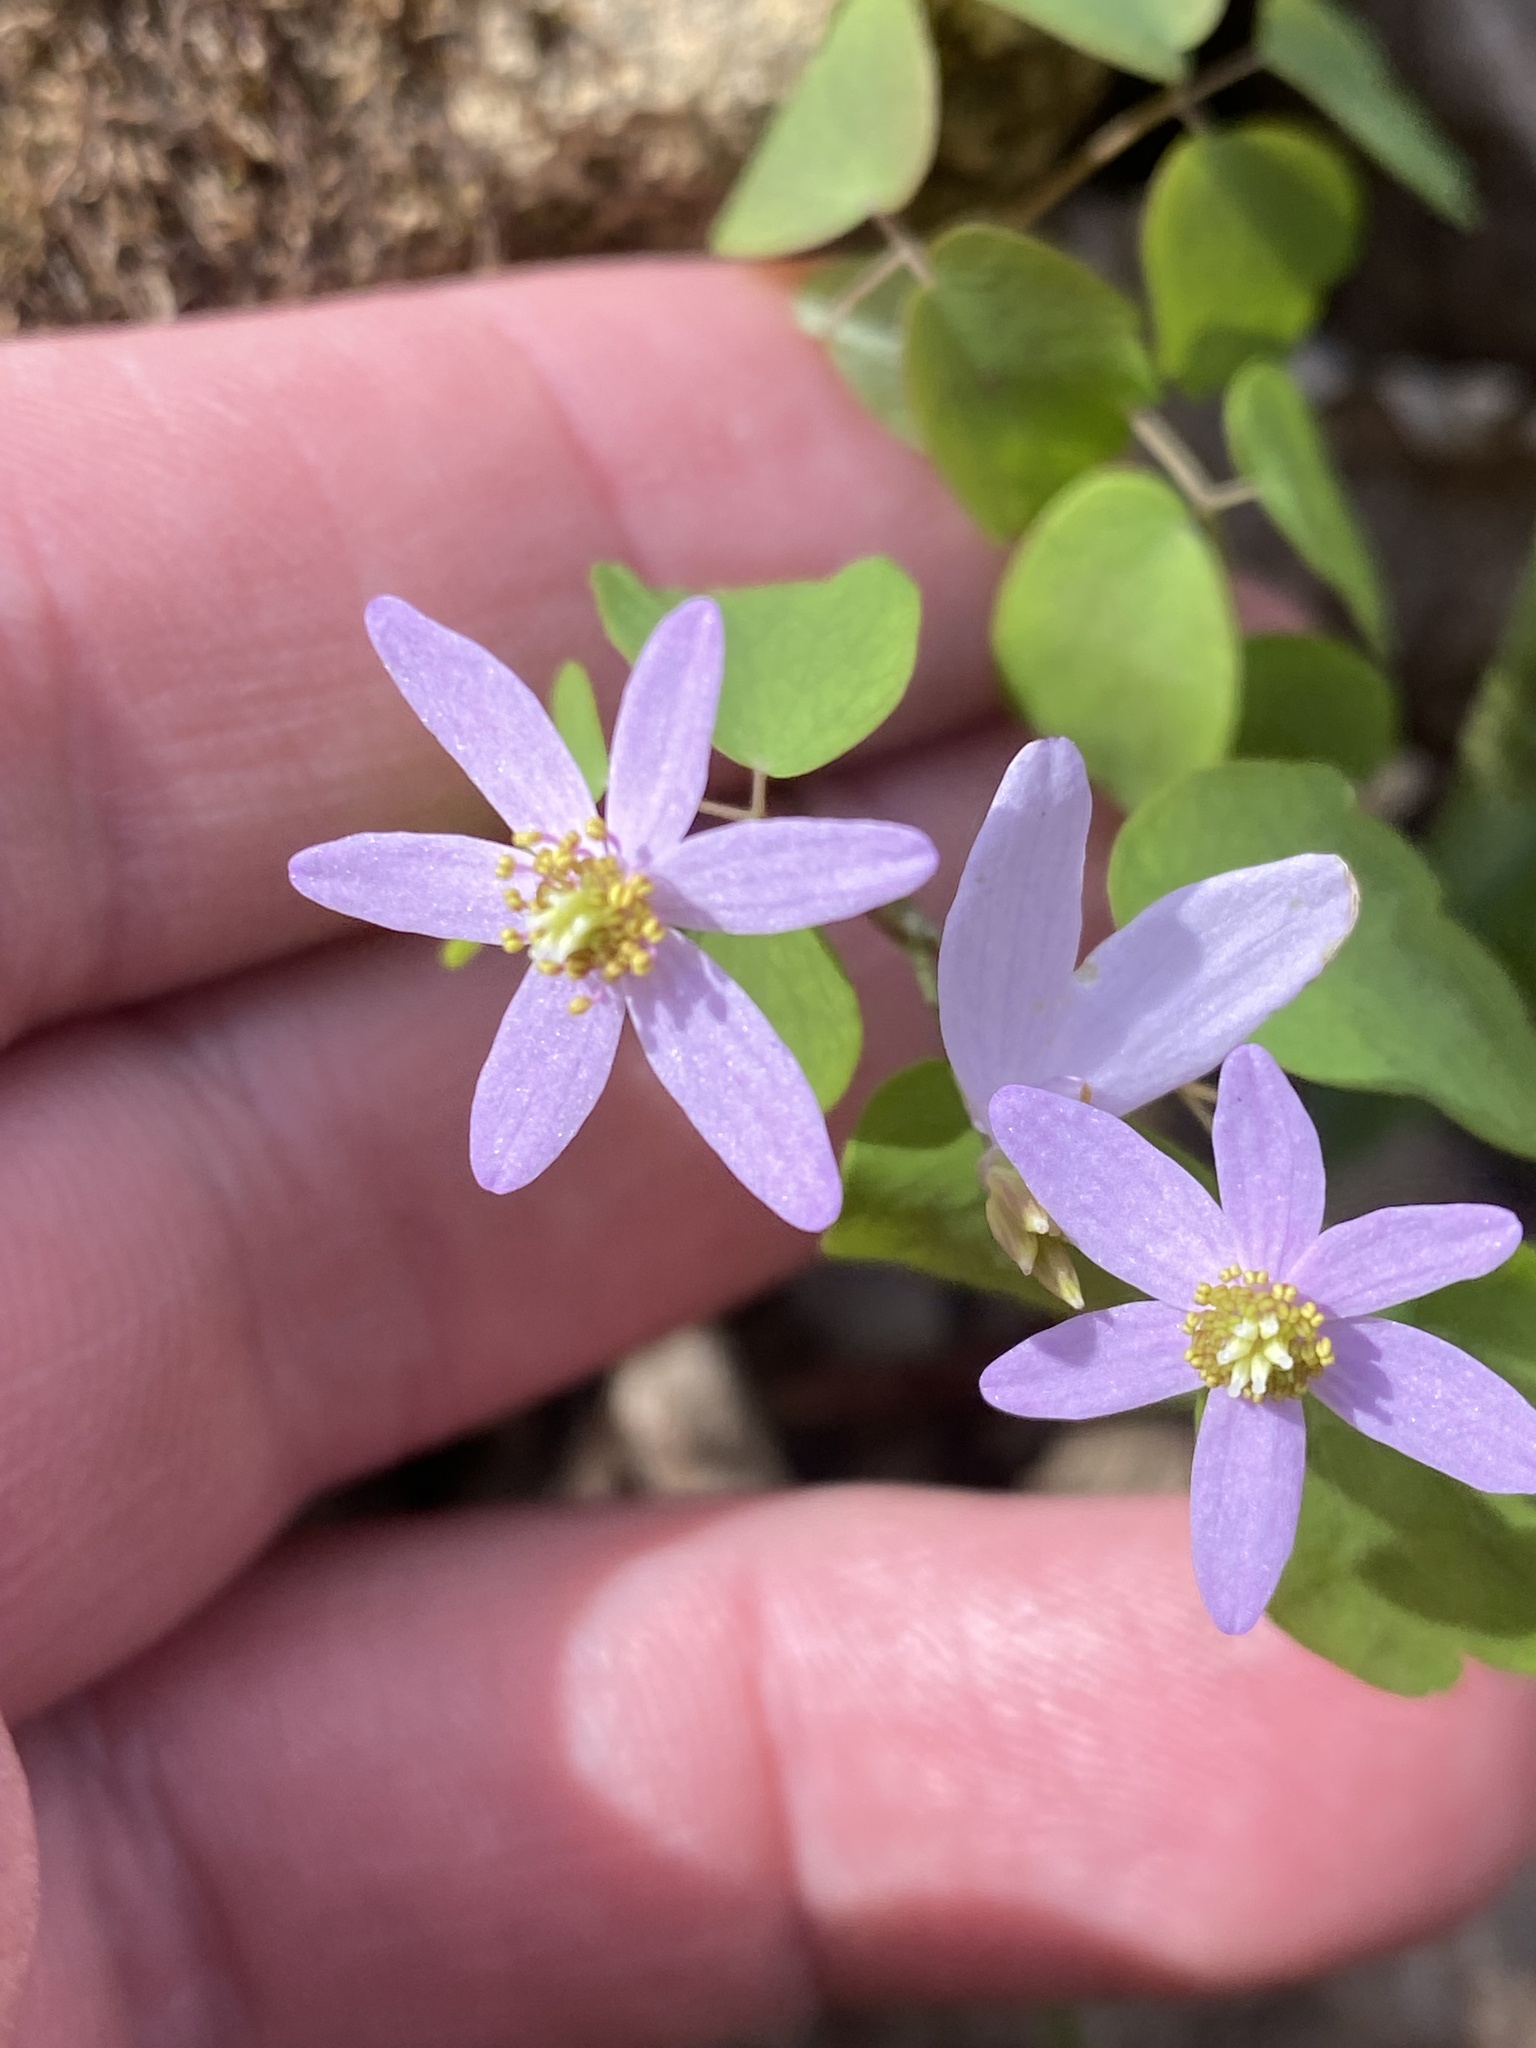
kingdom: Plantae
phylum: Tracheophyta
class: Magnoliopsida
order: Ranunculales
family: Ranunculaceae
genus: Thalictrum
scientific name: Thalictrum thalictroides
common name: Rue-anemone
